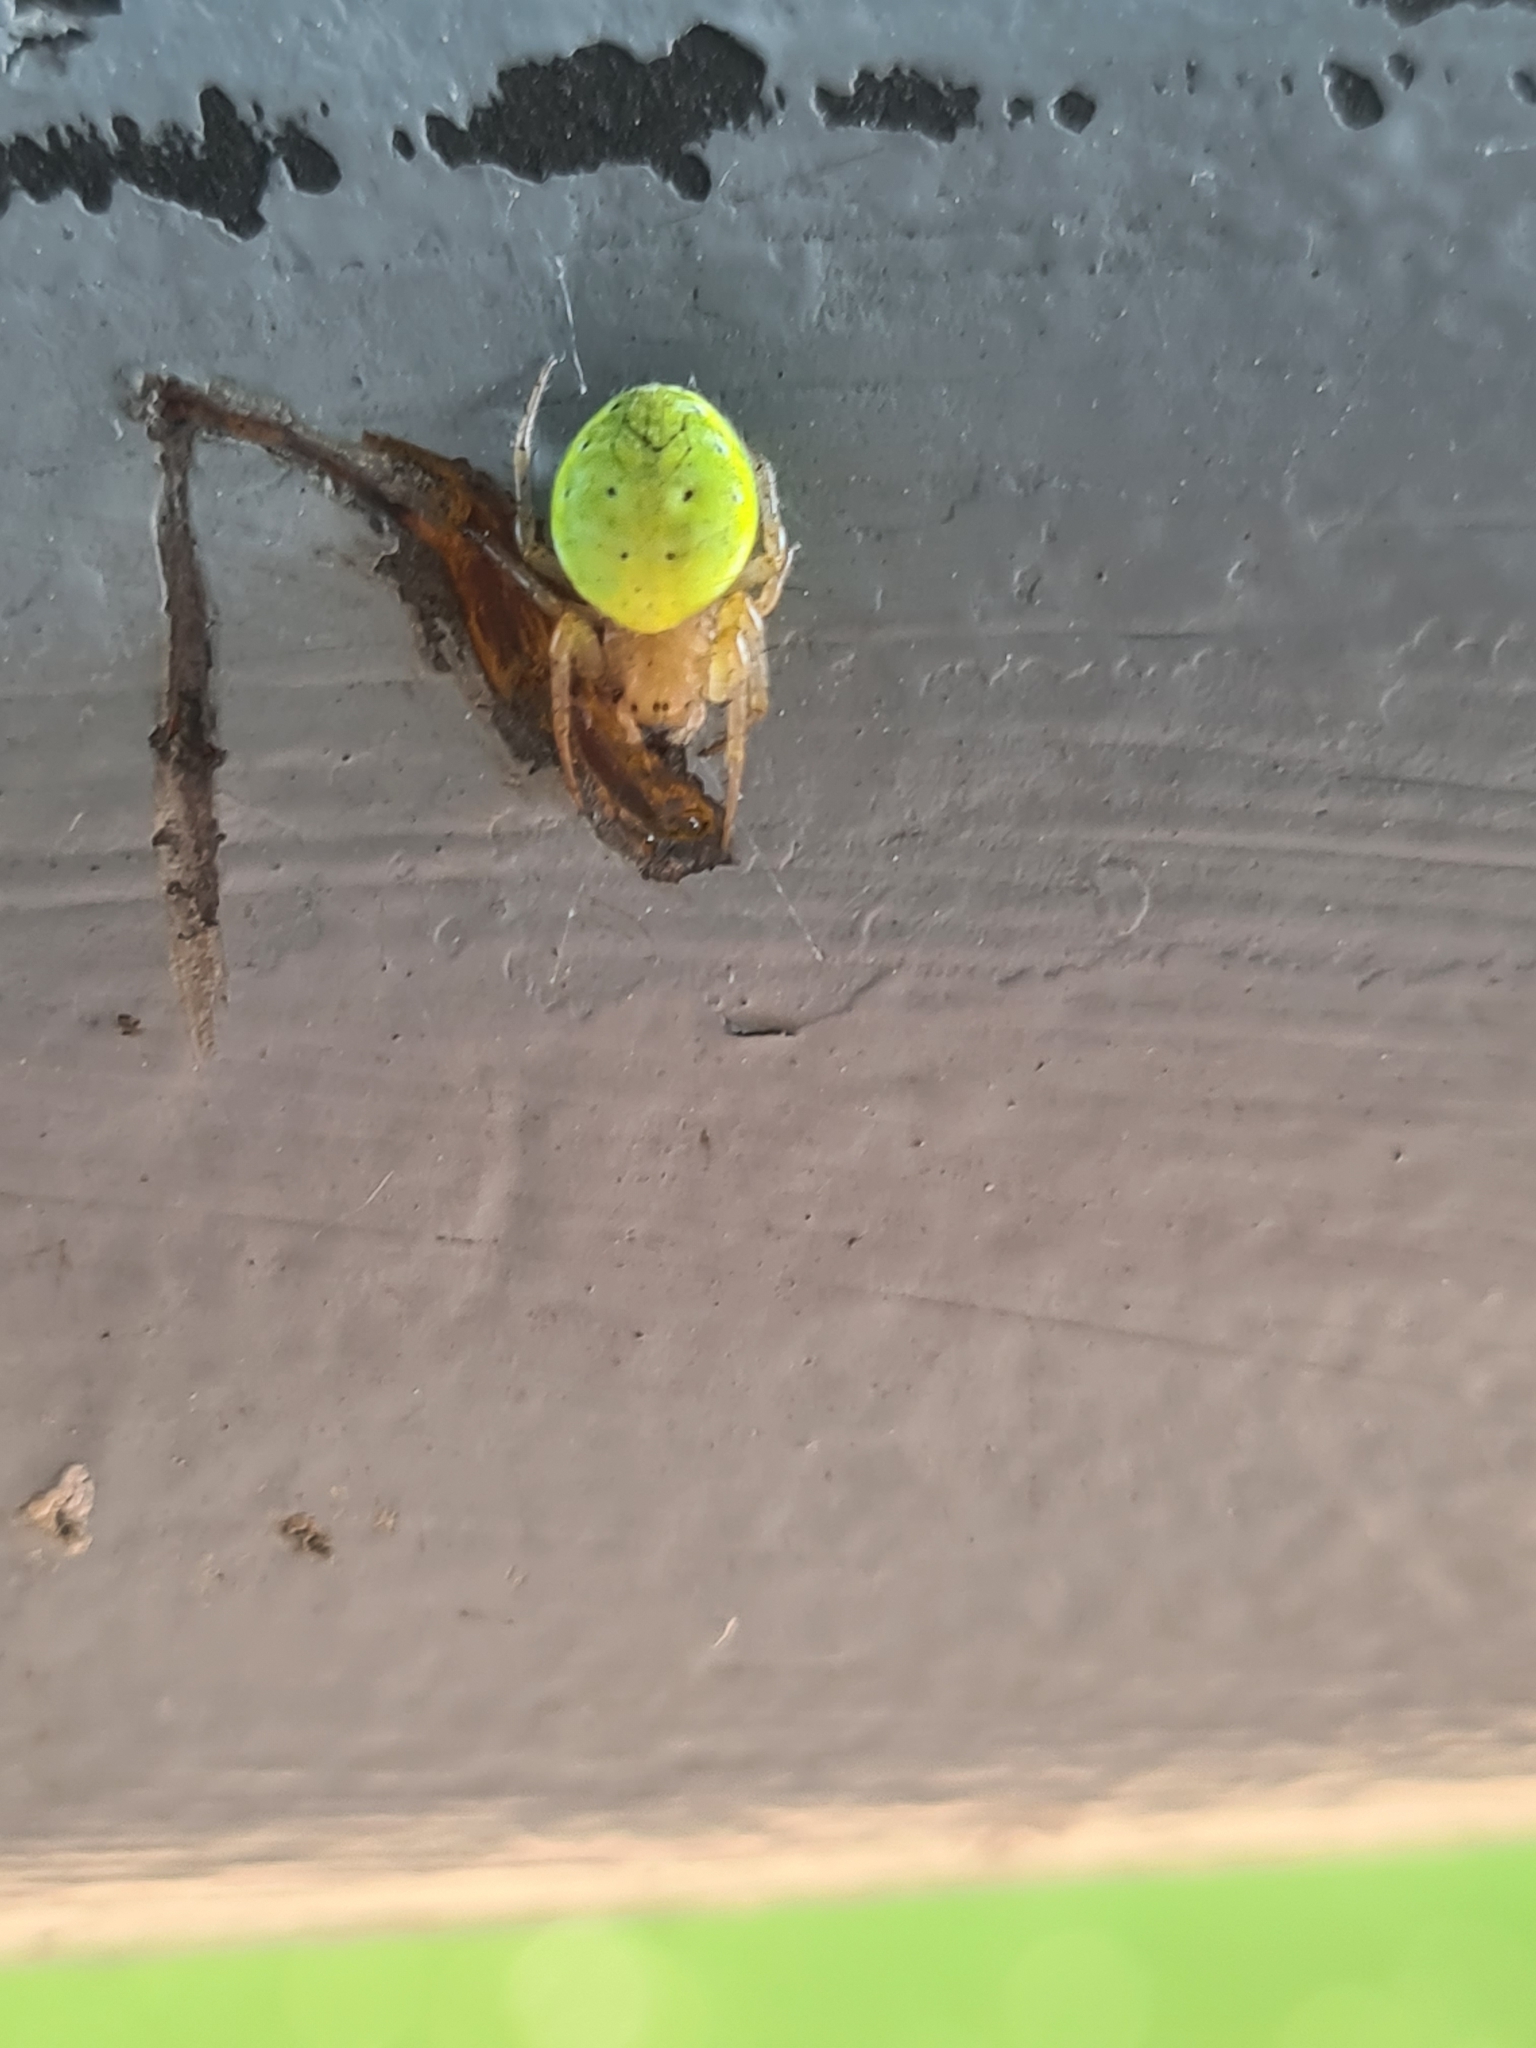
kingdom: Animalia
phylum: Arthropoda
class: Arachnida
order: Araneae
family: Araneidae
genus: Araniella
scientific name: Araniella
